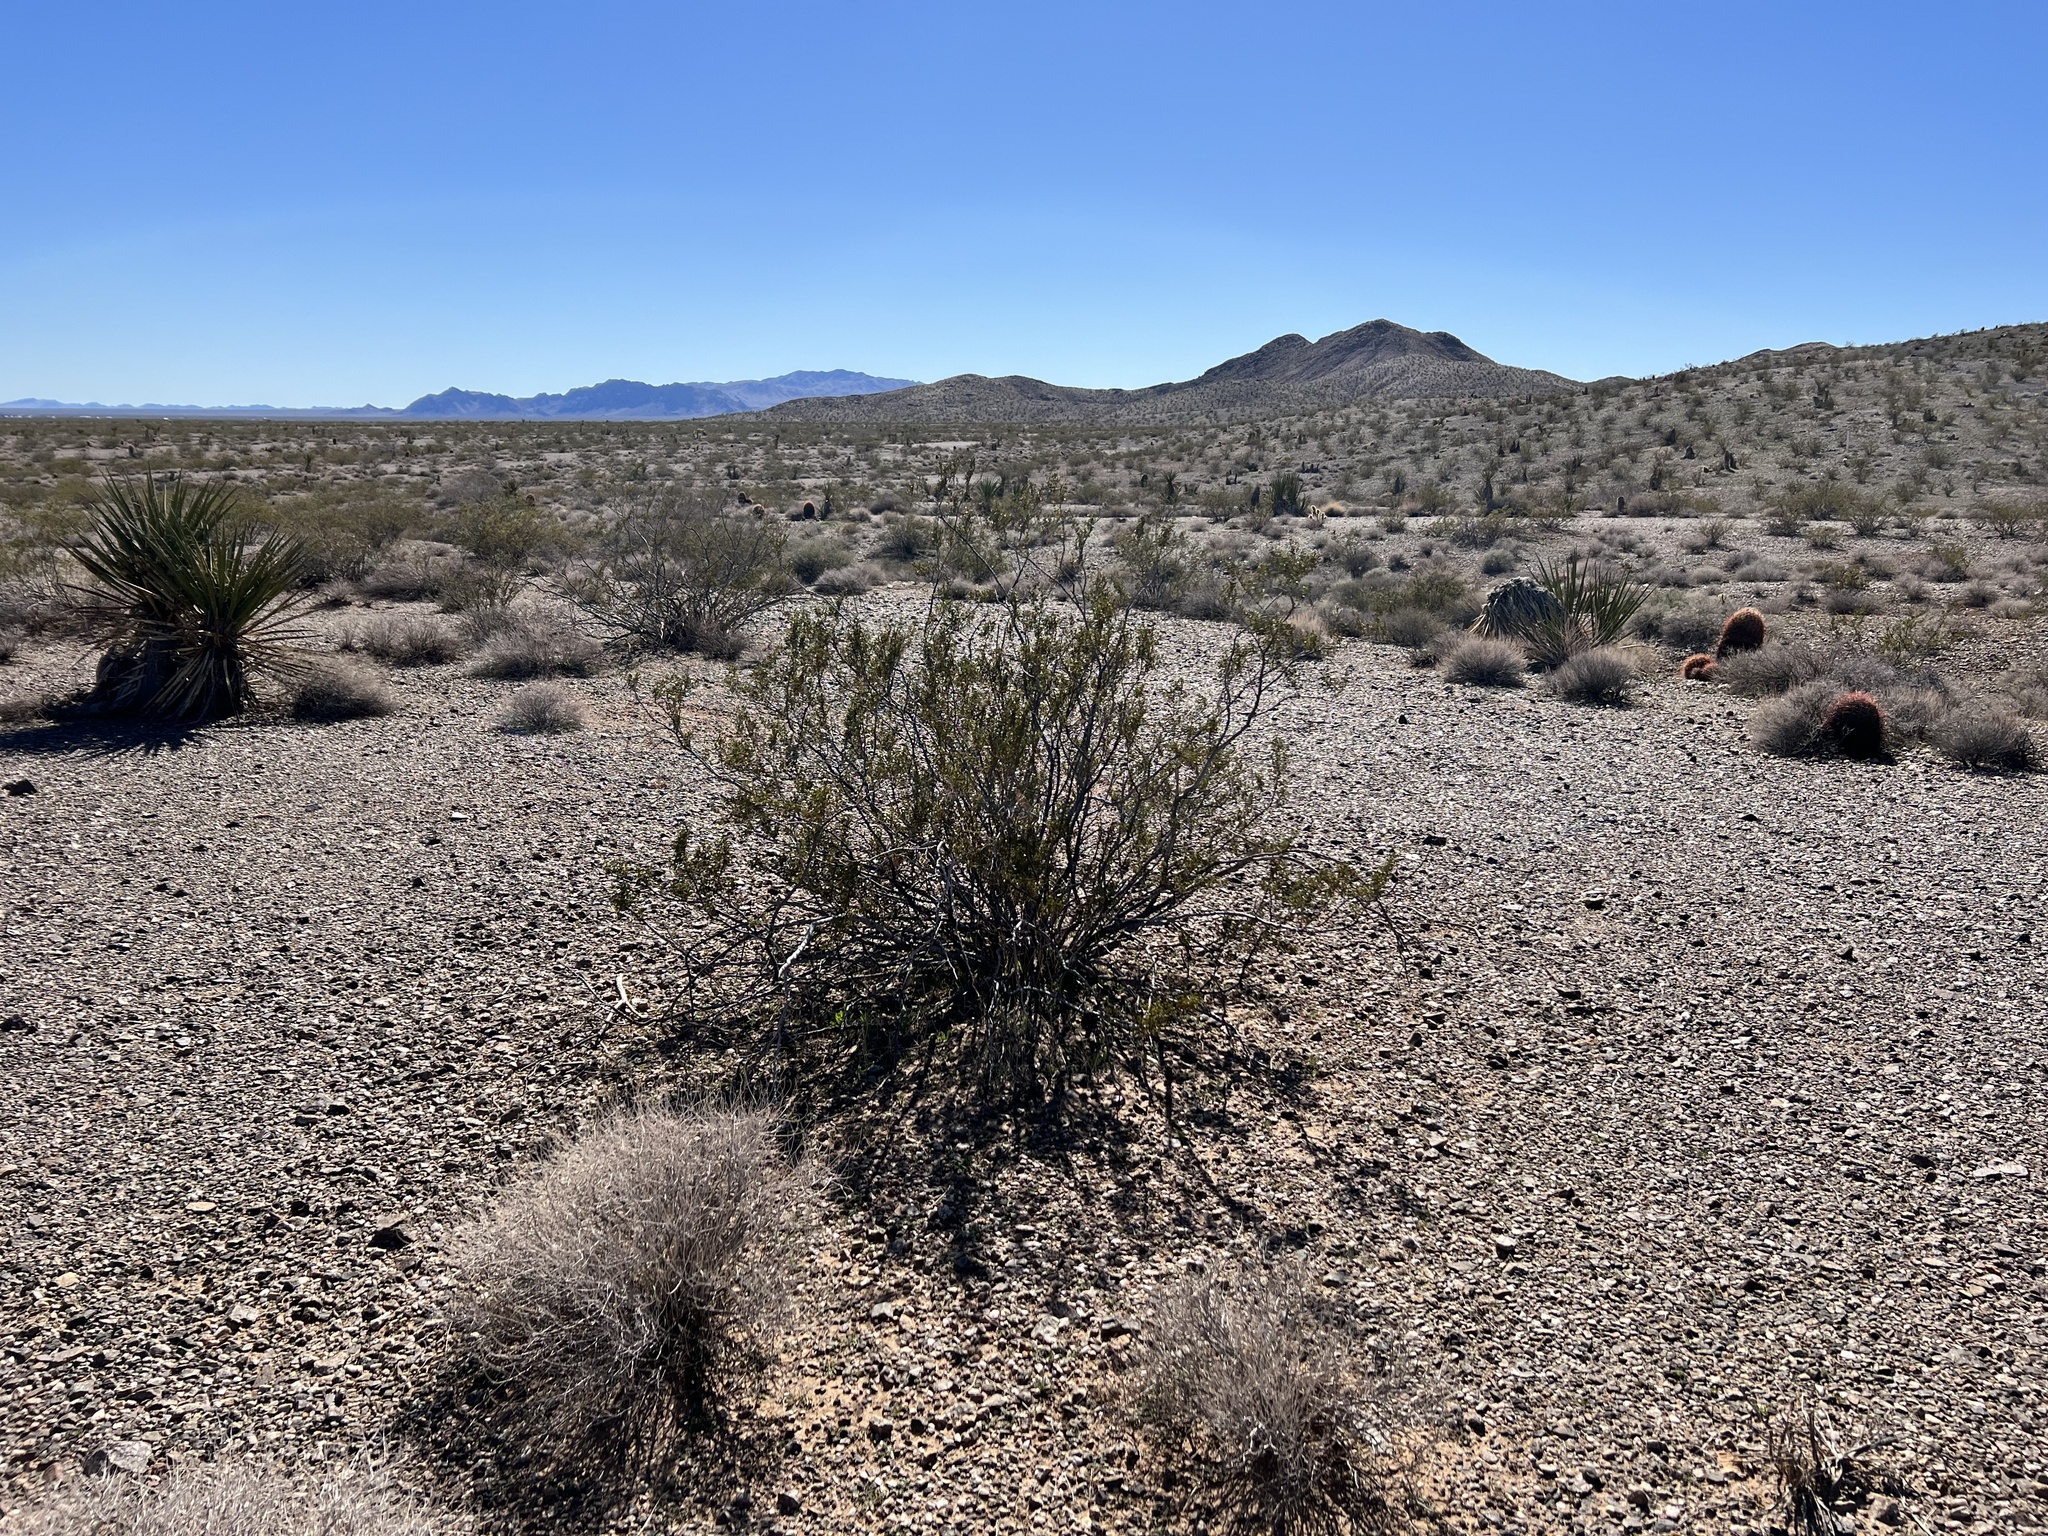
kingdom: Plantae
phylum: Tracheophyta
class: Magnoliopsida
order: Zygophyllales
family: Zygophyllaceae
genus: Larrea
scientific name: Larrea tridentata
